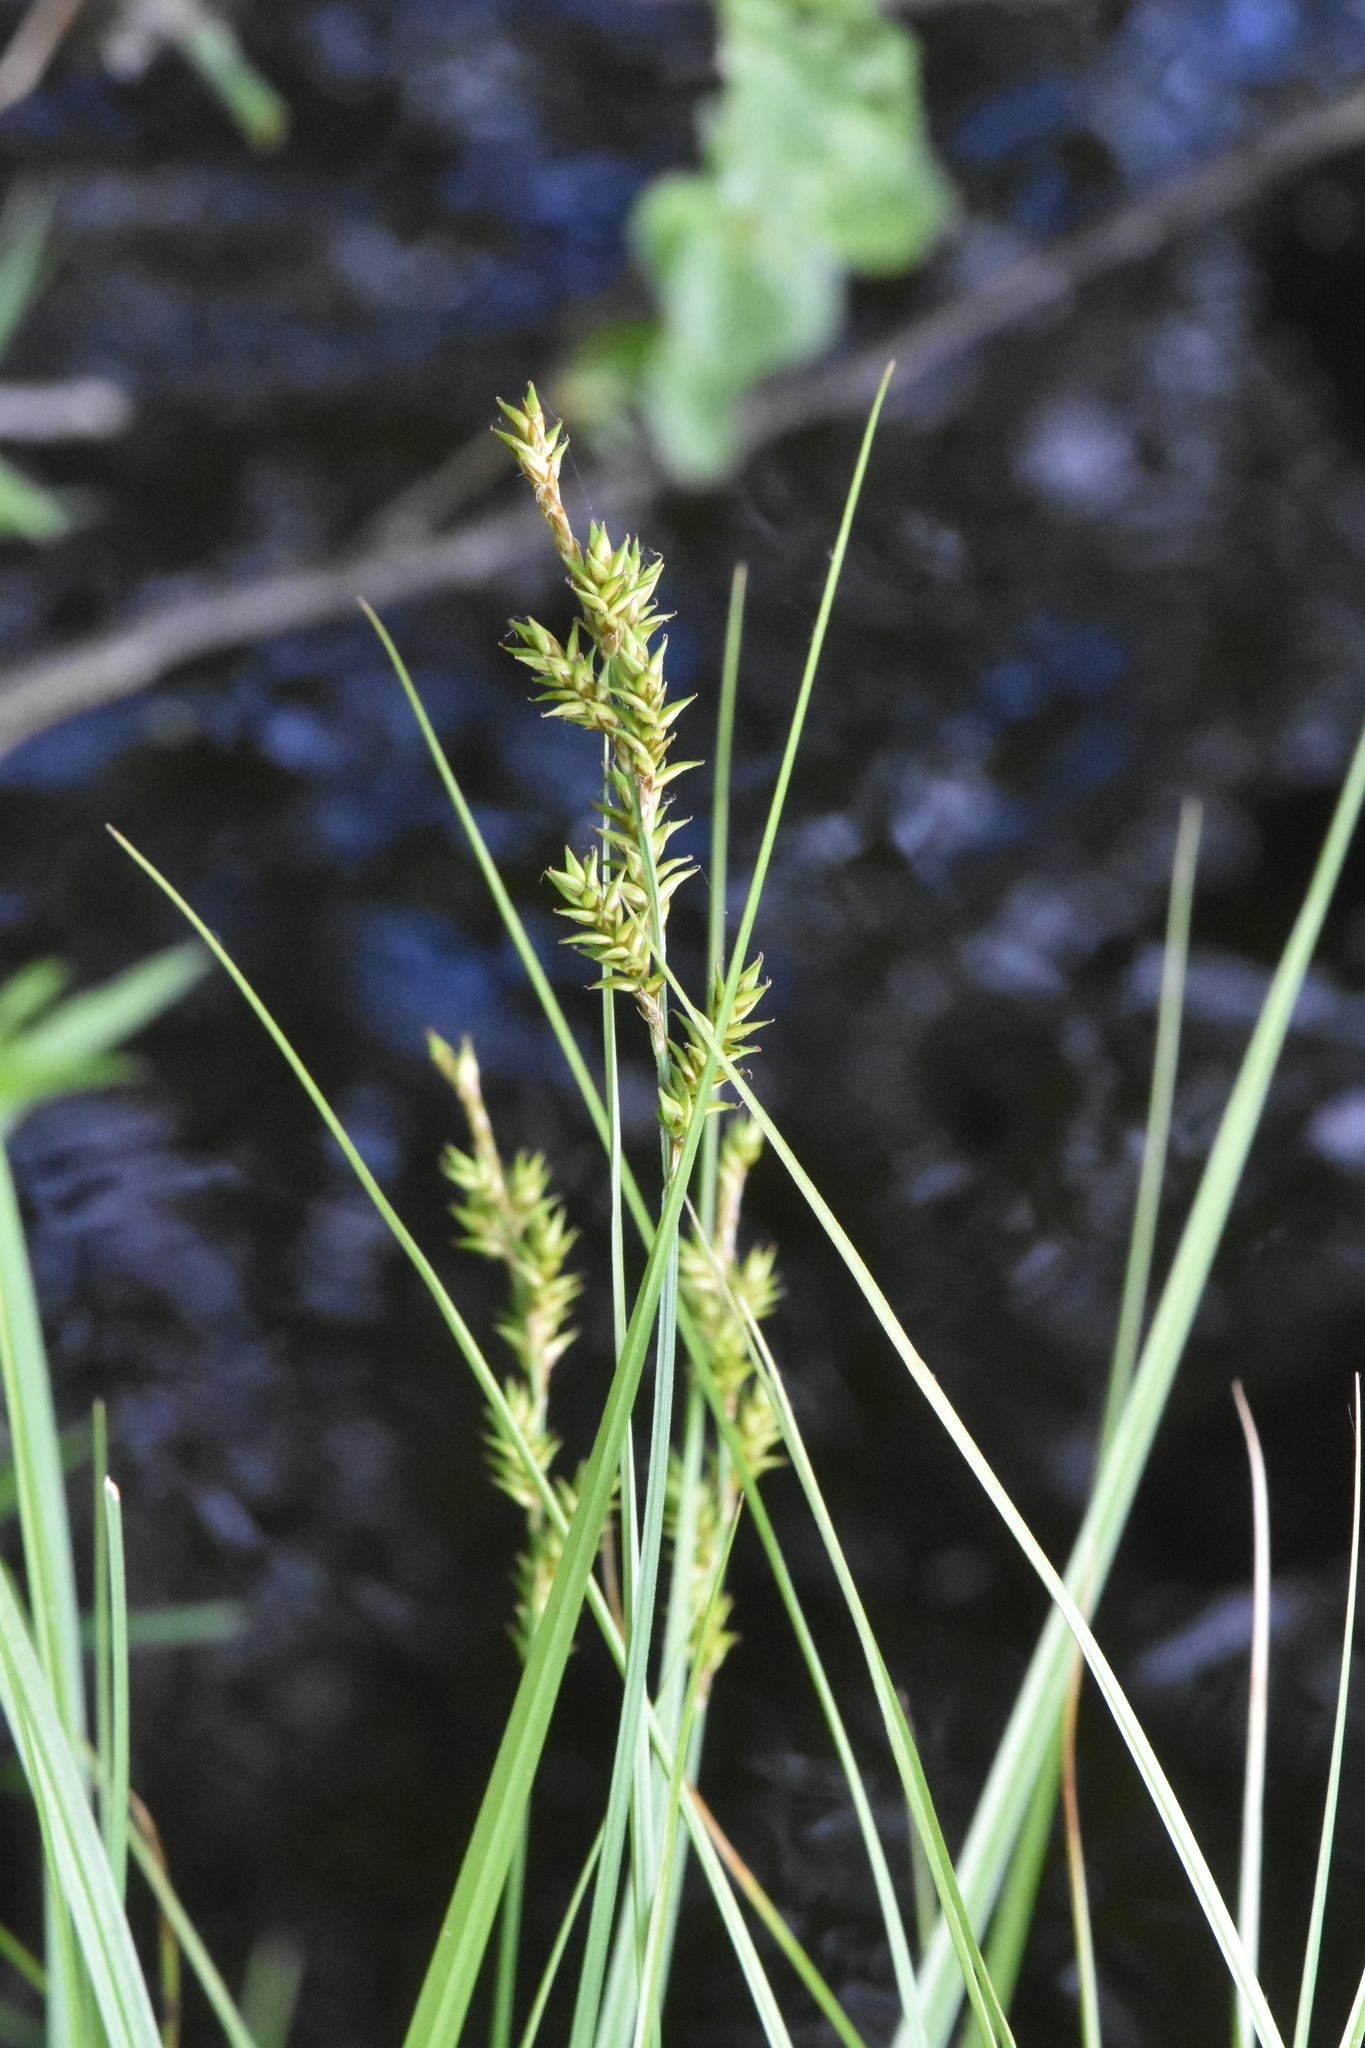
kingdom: Plantae
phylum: Tracheophyta
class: Liliopsida
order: Poales
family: Cyperaceae
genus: Carex
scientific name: Carex elongata
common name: Elongated sedge
